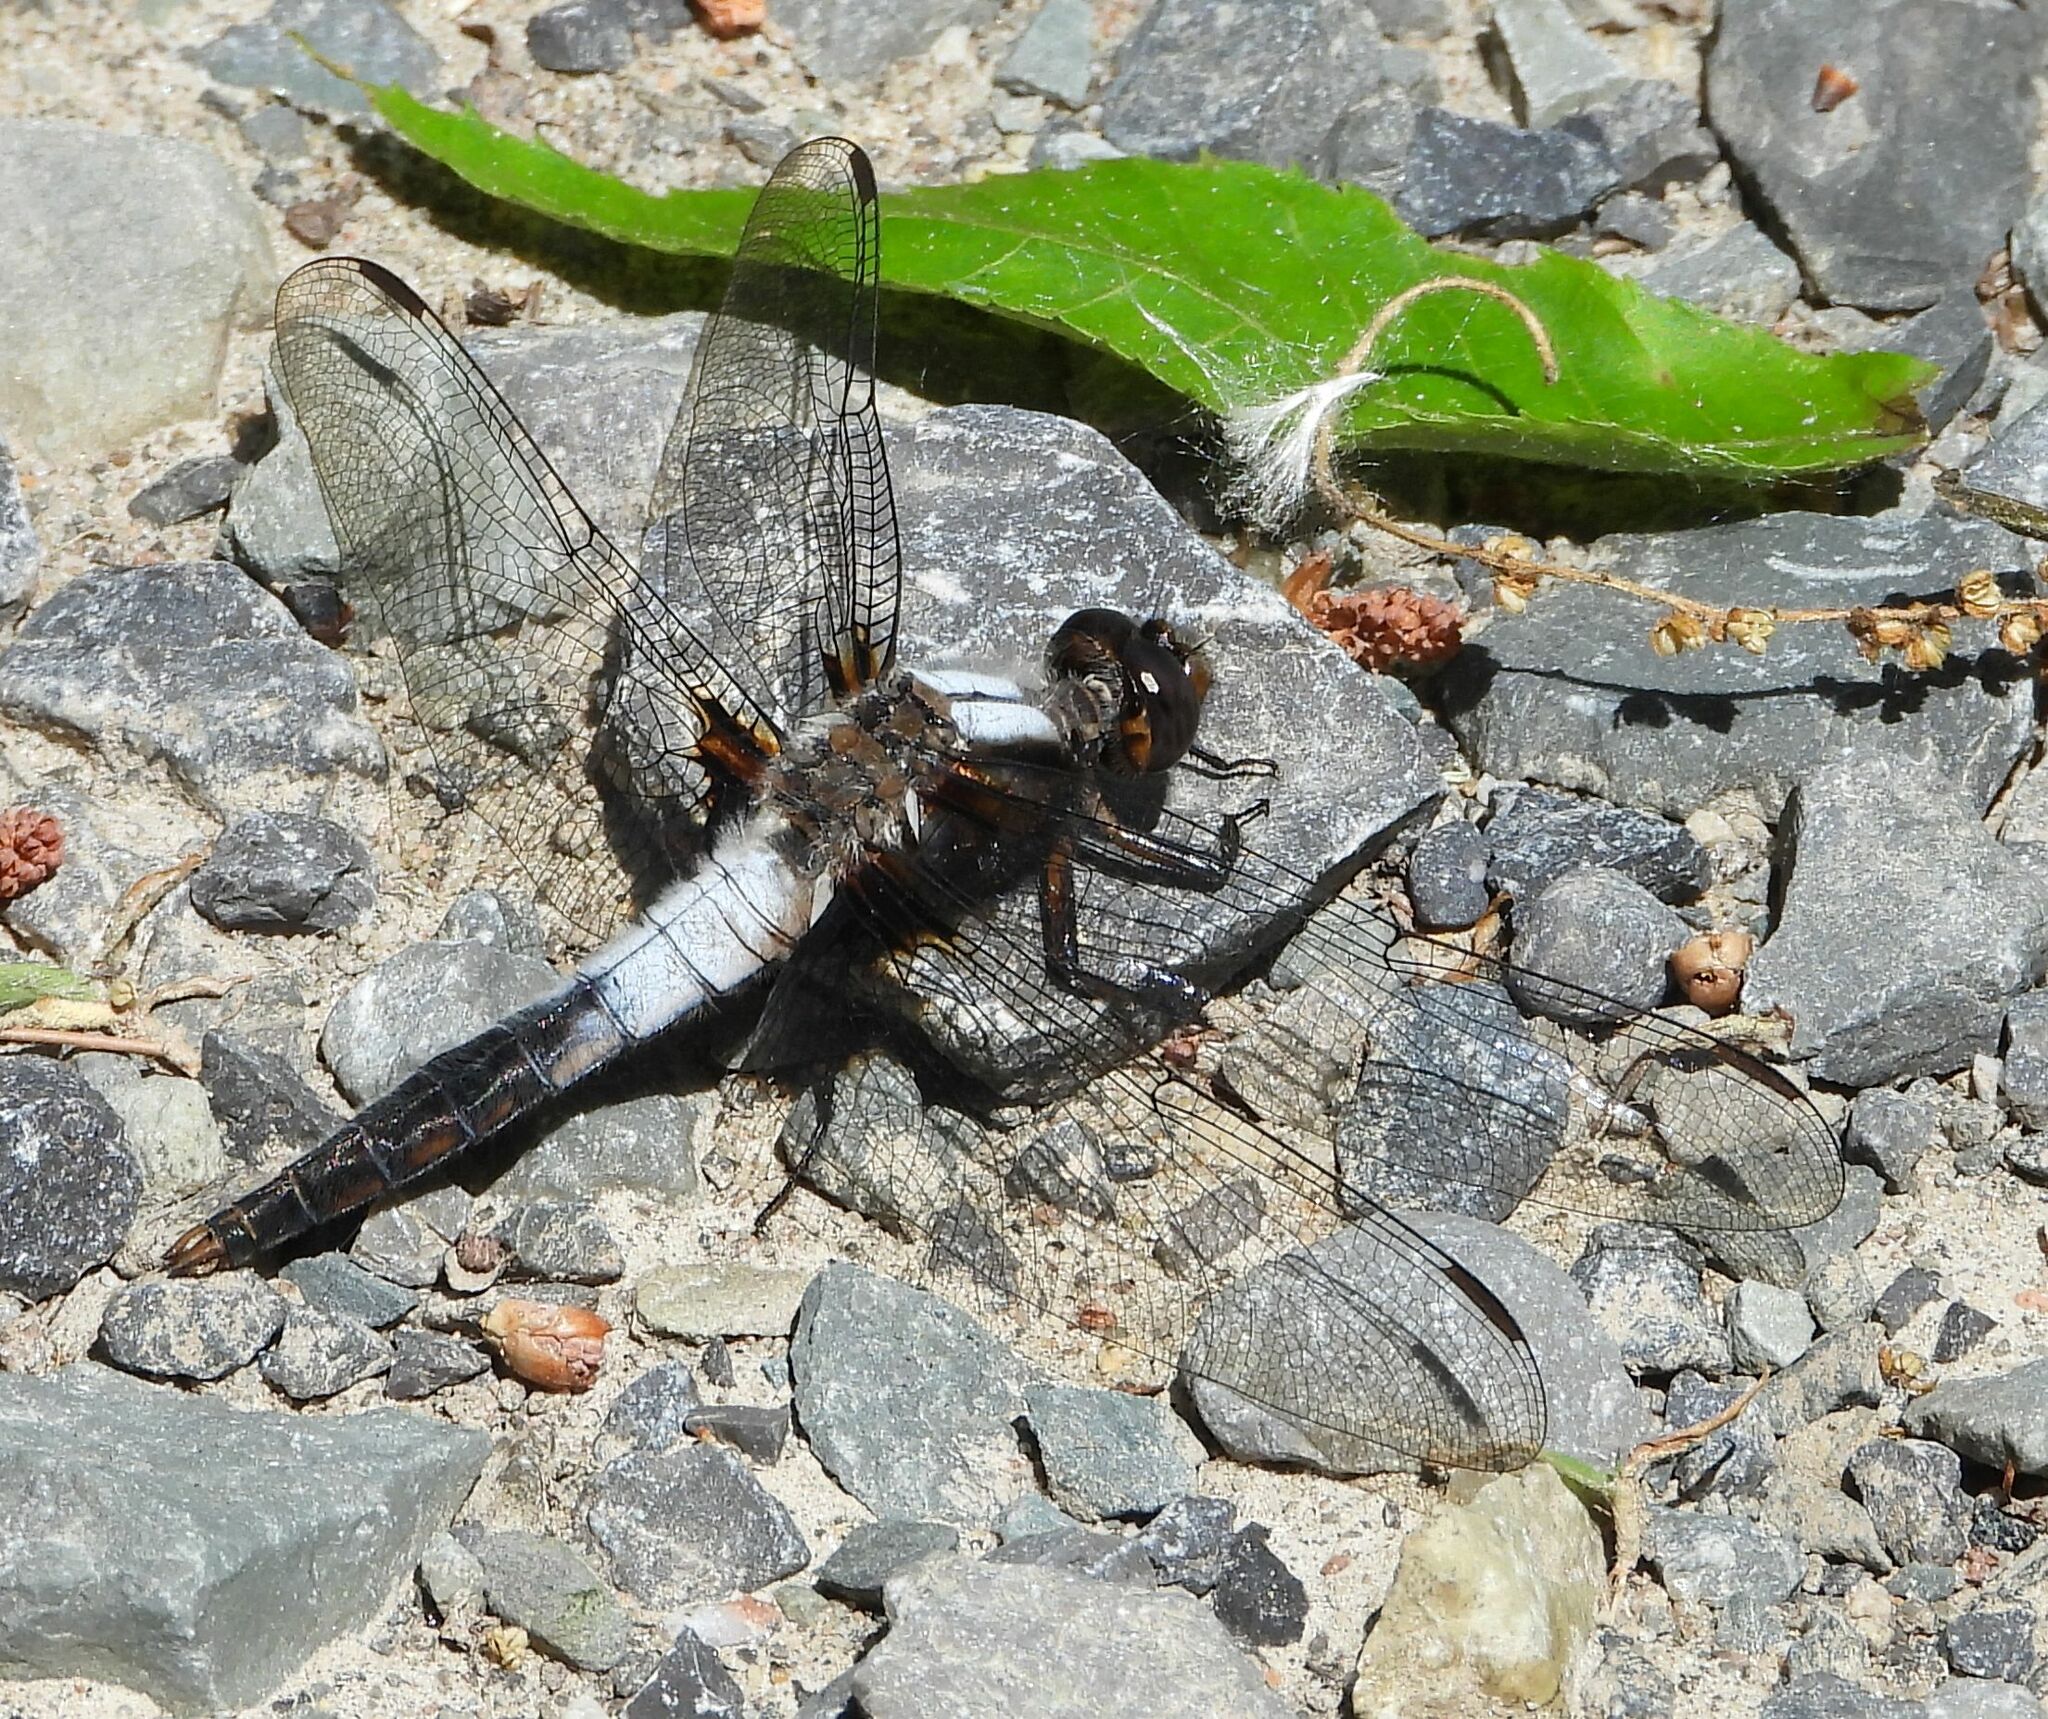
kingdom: Animalia
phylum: Arthropoda
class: Insecta
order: Odonata
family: Libellulidae
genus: Ladona
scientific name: Ladona julia
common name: Chalk-fronted corporal
